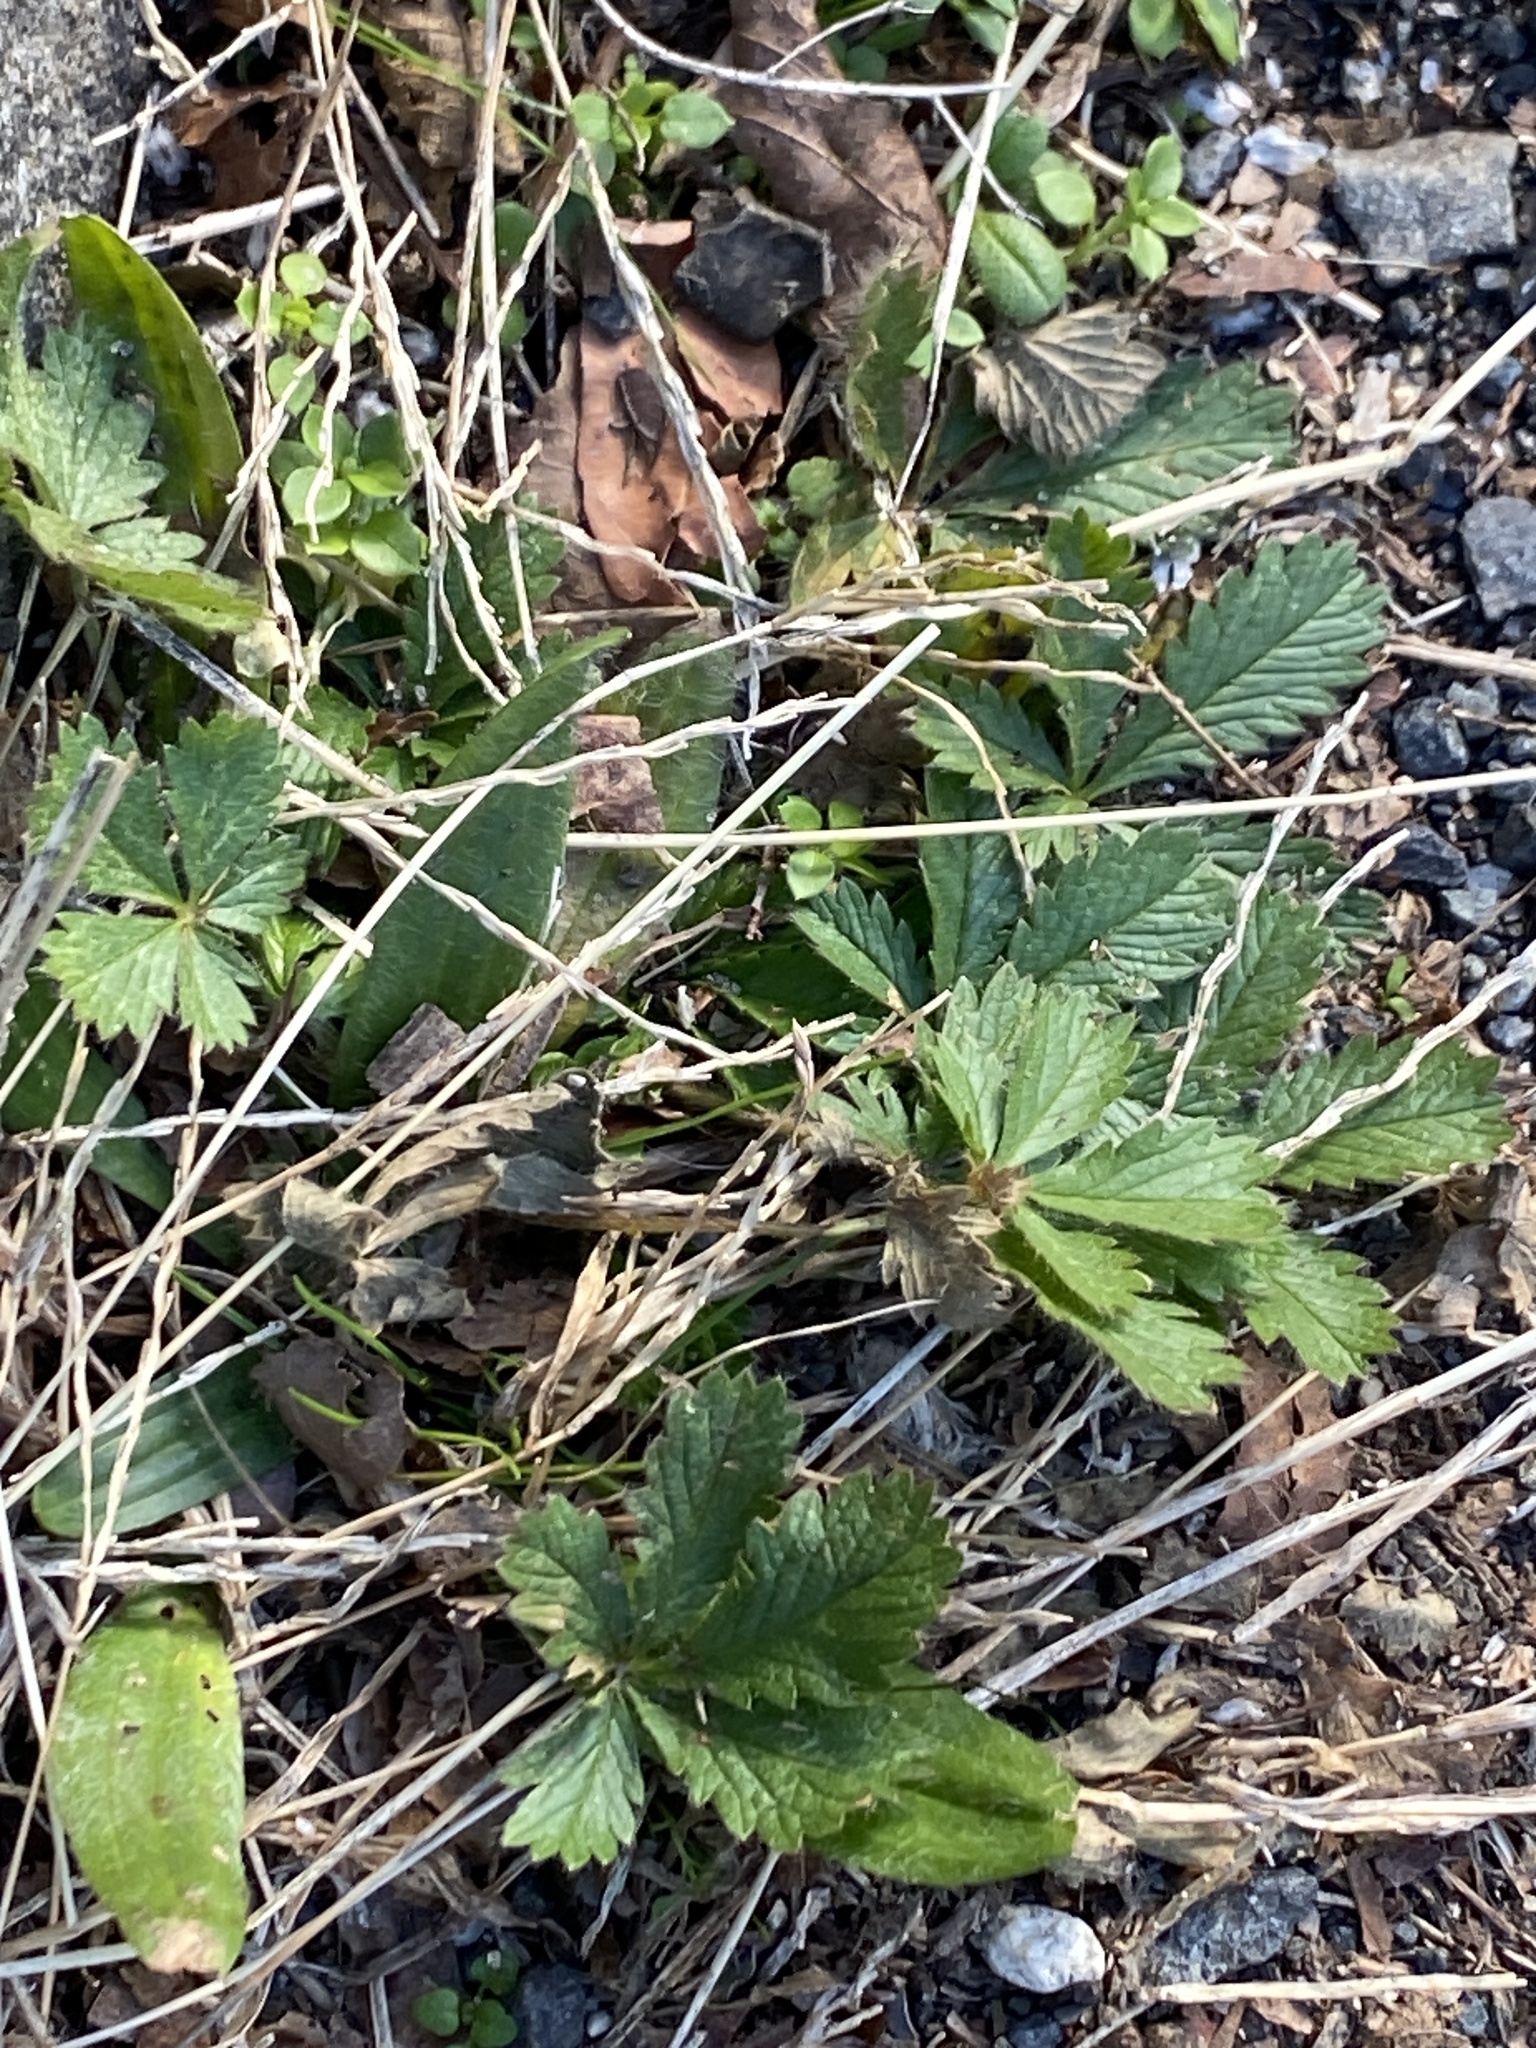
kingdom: Plantae
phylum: Tracheophyta
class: Magnoliopsida
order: Rosales
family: Rosaceae
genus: Potentilla
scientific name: Potentilla recta
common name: Sulphur cinquefoil
